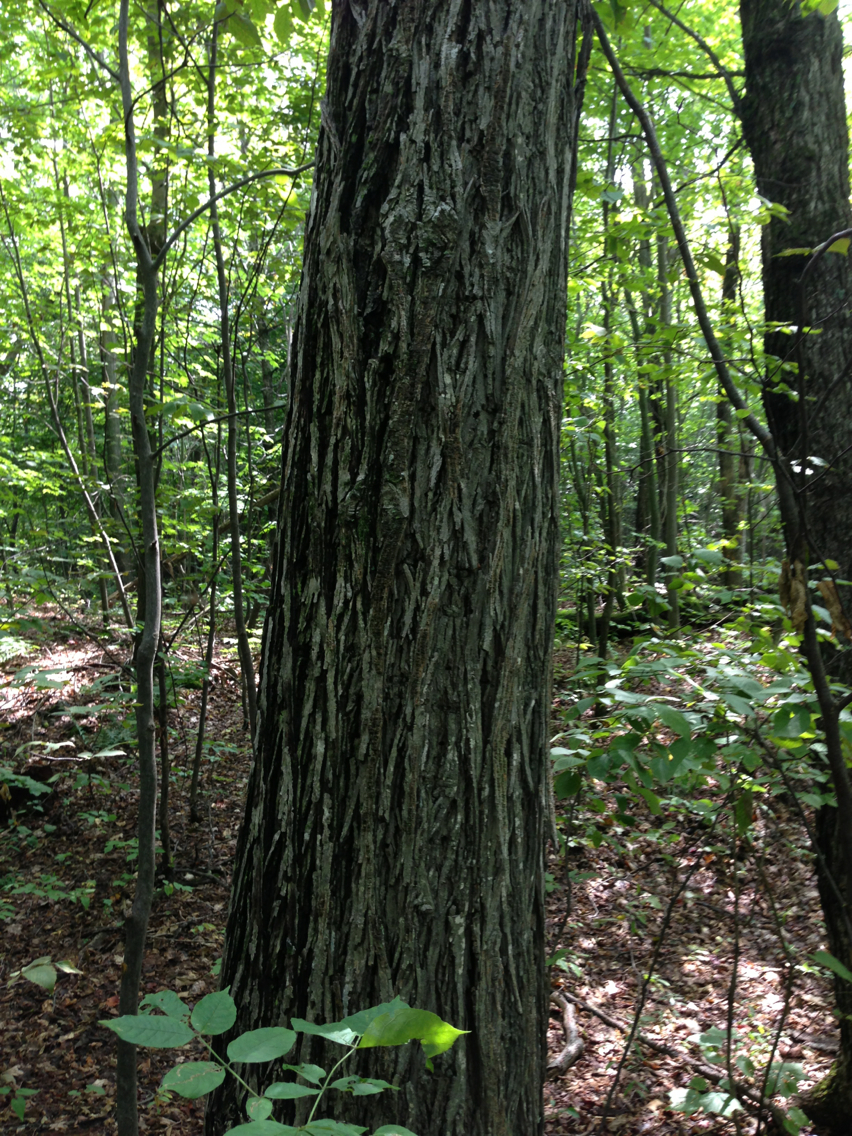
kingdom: Plantae
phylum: Tracheophyta
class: Magnoliopsida
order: Fagales
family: Juglandaceae
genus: Carya
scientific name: Carya glabra
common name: Pignut hickory
